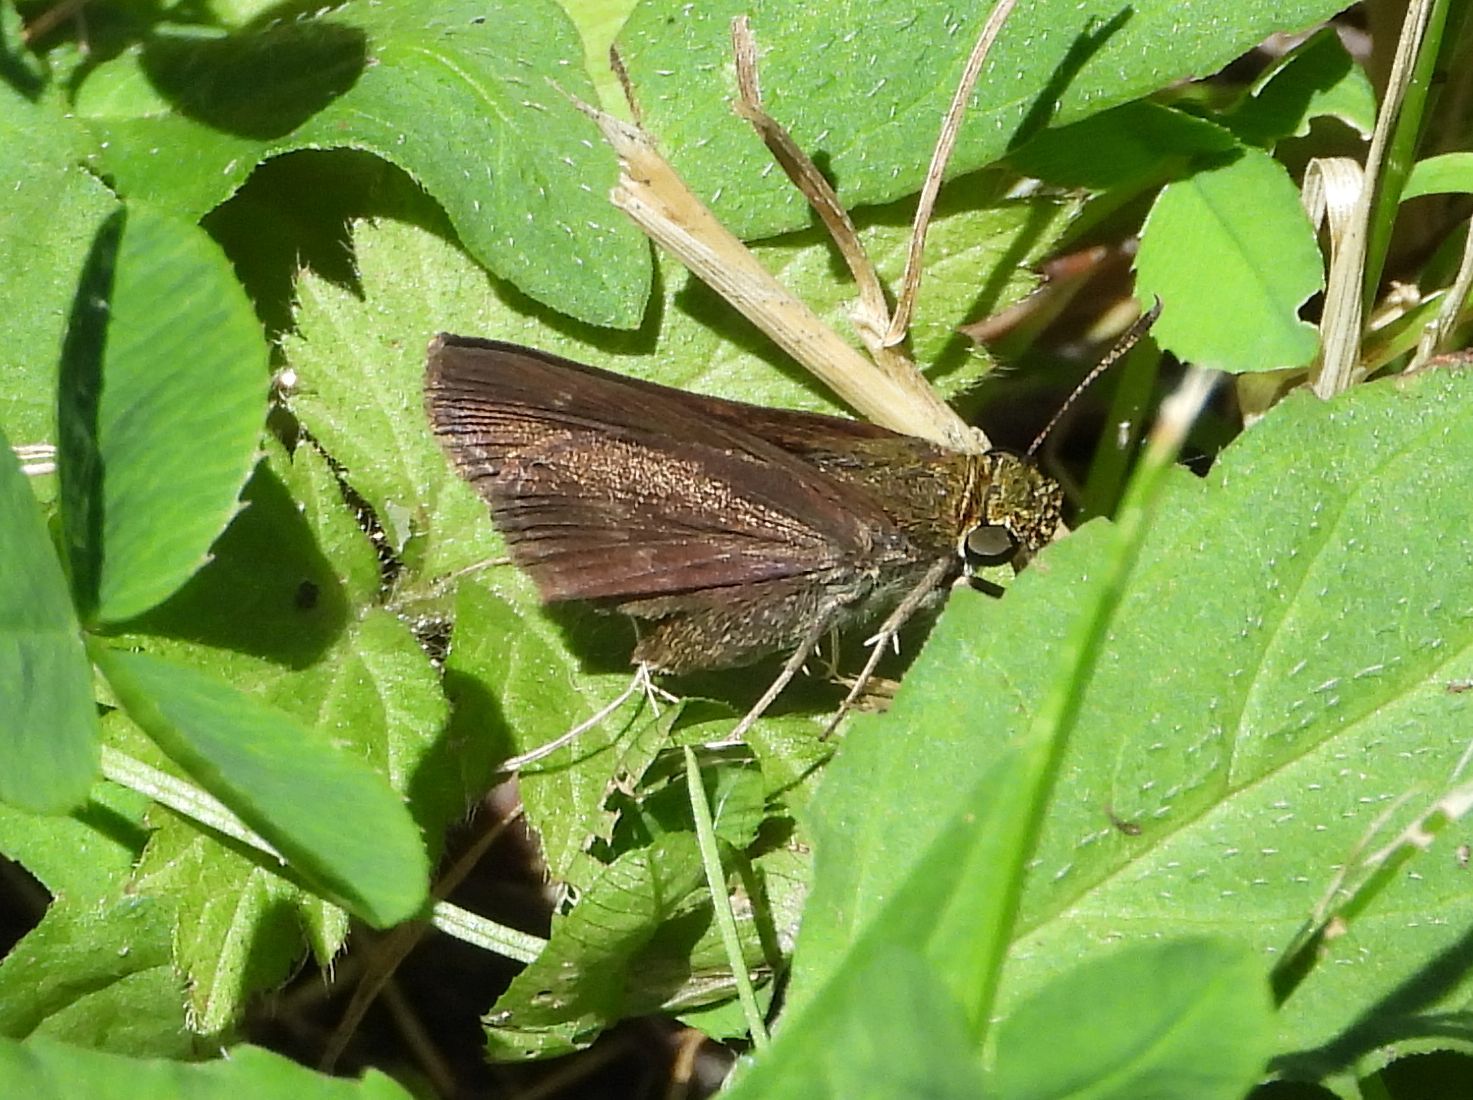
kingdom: Animalia
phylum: Arthropoda
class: Insecta
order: Lepidoptera
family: Hesperiidae
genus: Euphyes
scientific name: Euphyes vestris
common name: Dun skipper
